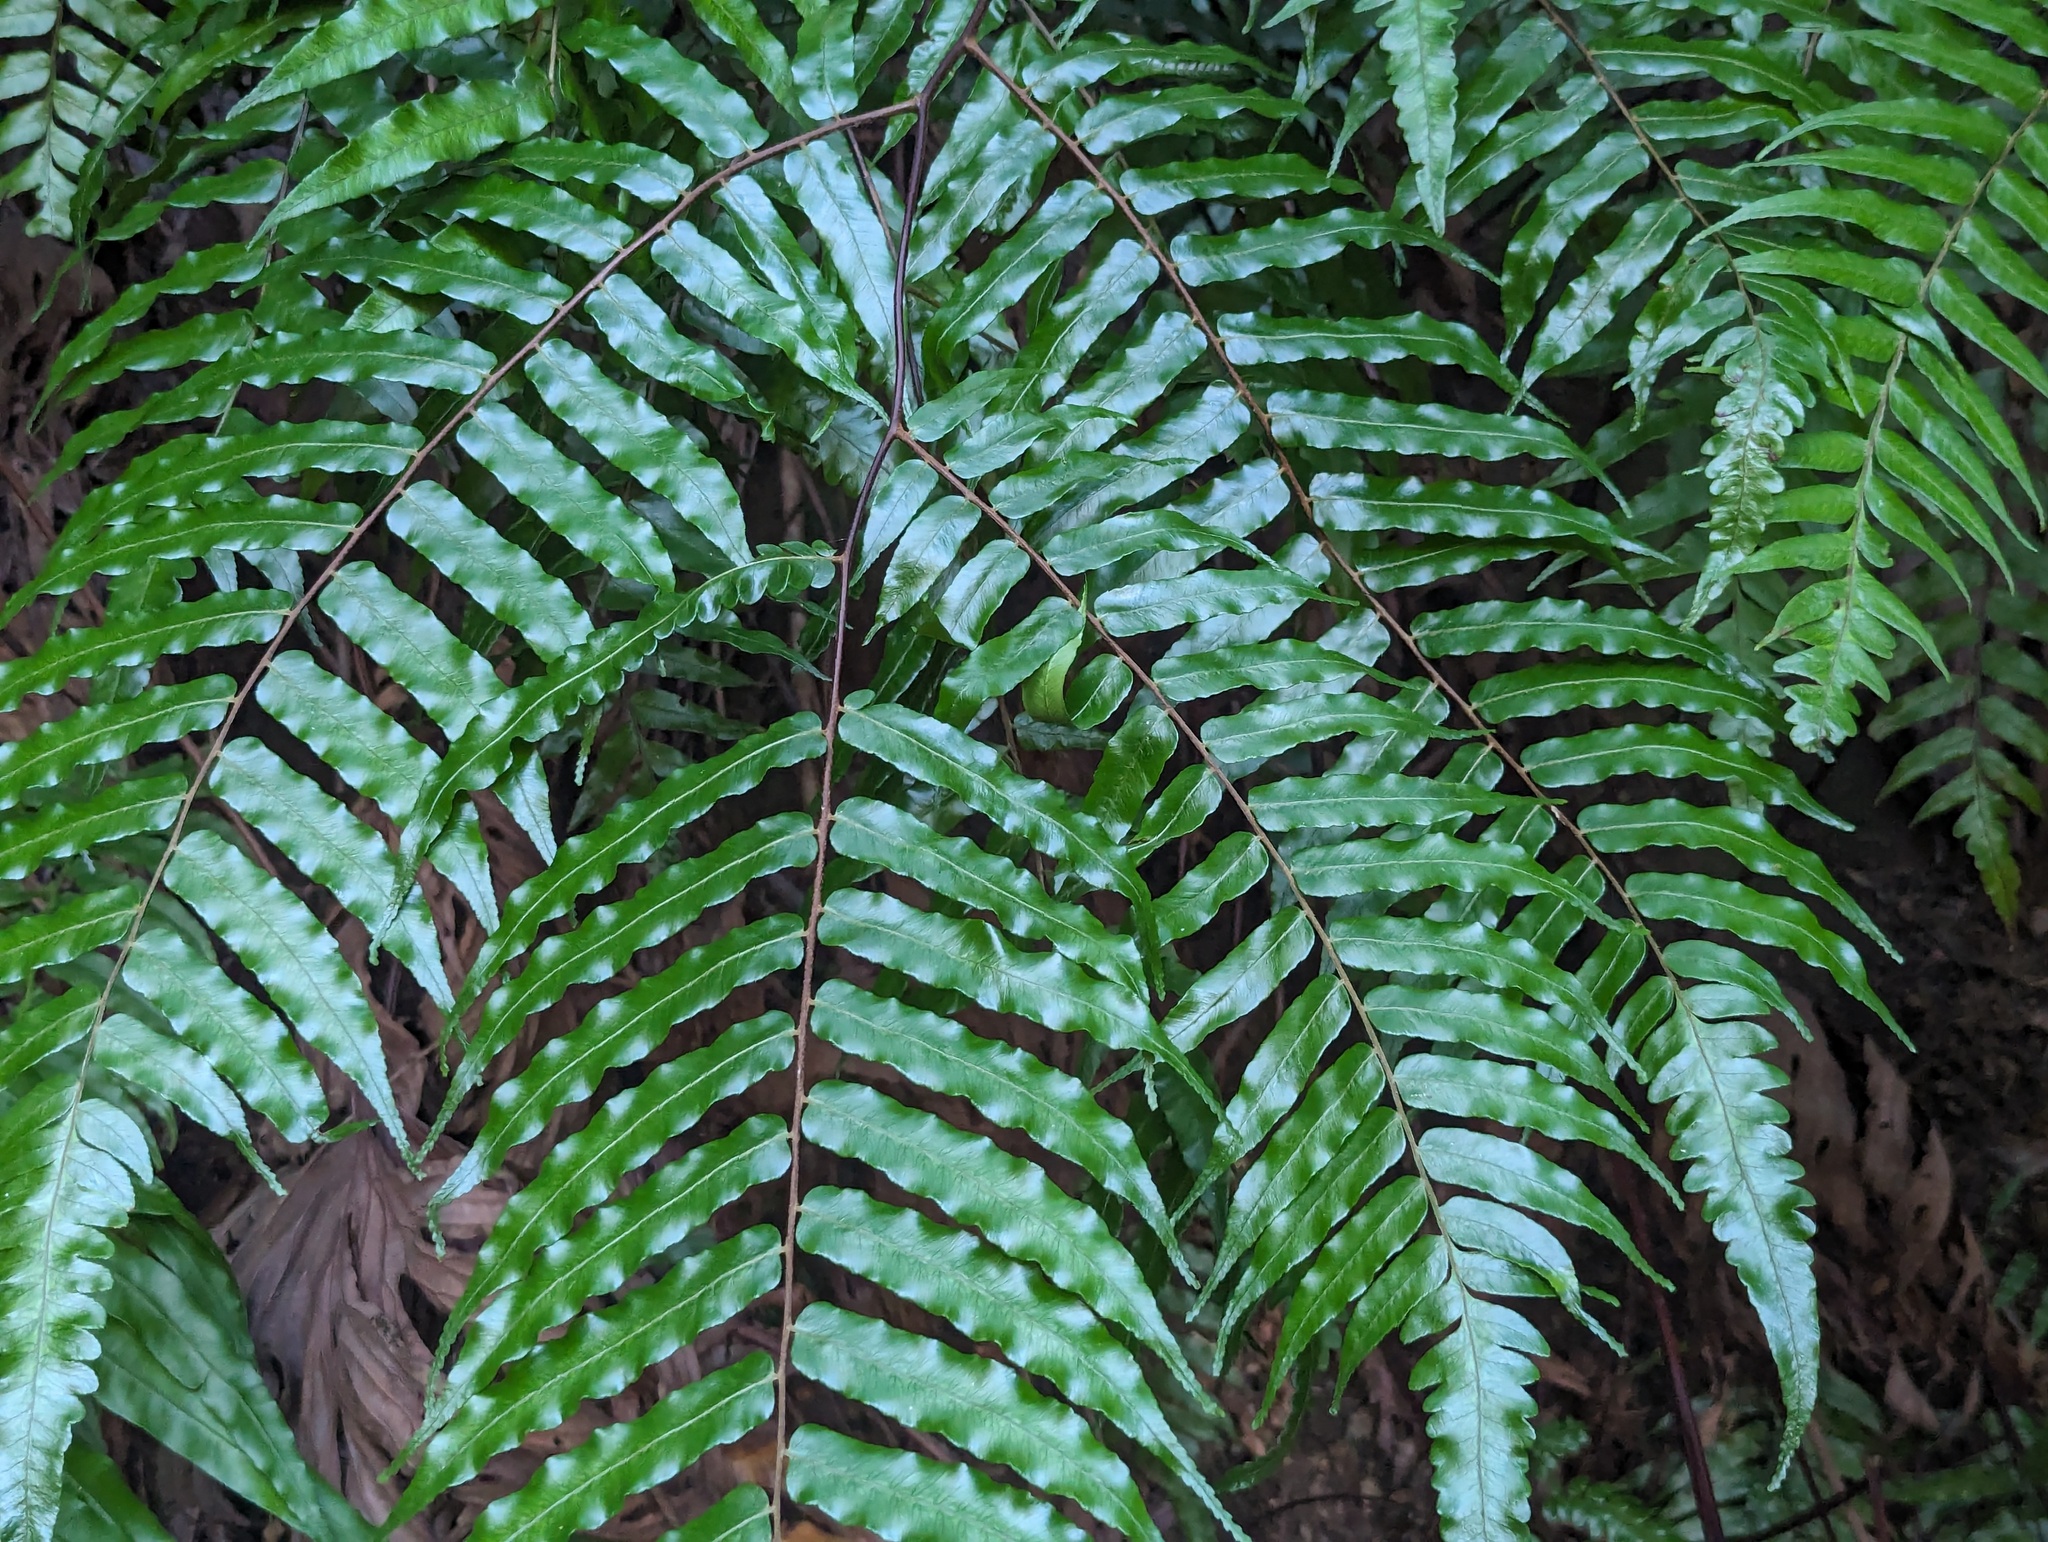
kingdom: Plantae
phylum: Tracheophyta
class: Polypodiopsida
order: Cyatheales
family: Cyatheaceae
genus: Gymnosphaera
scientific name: Gymnosphaera podophylla
